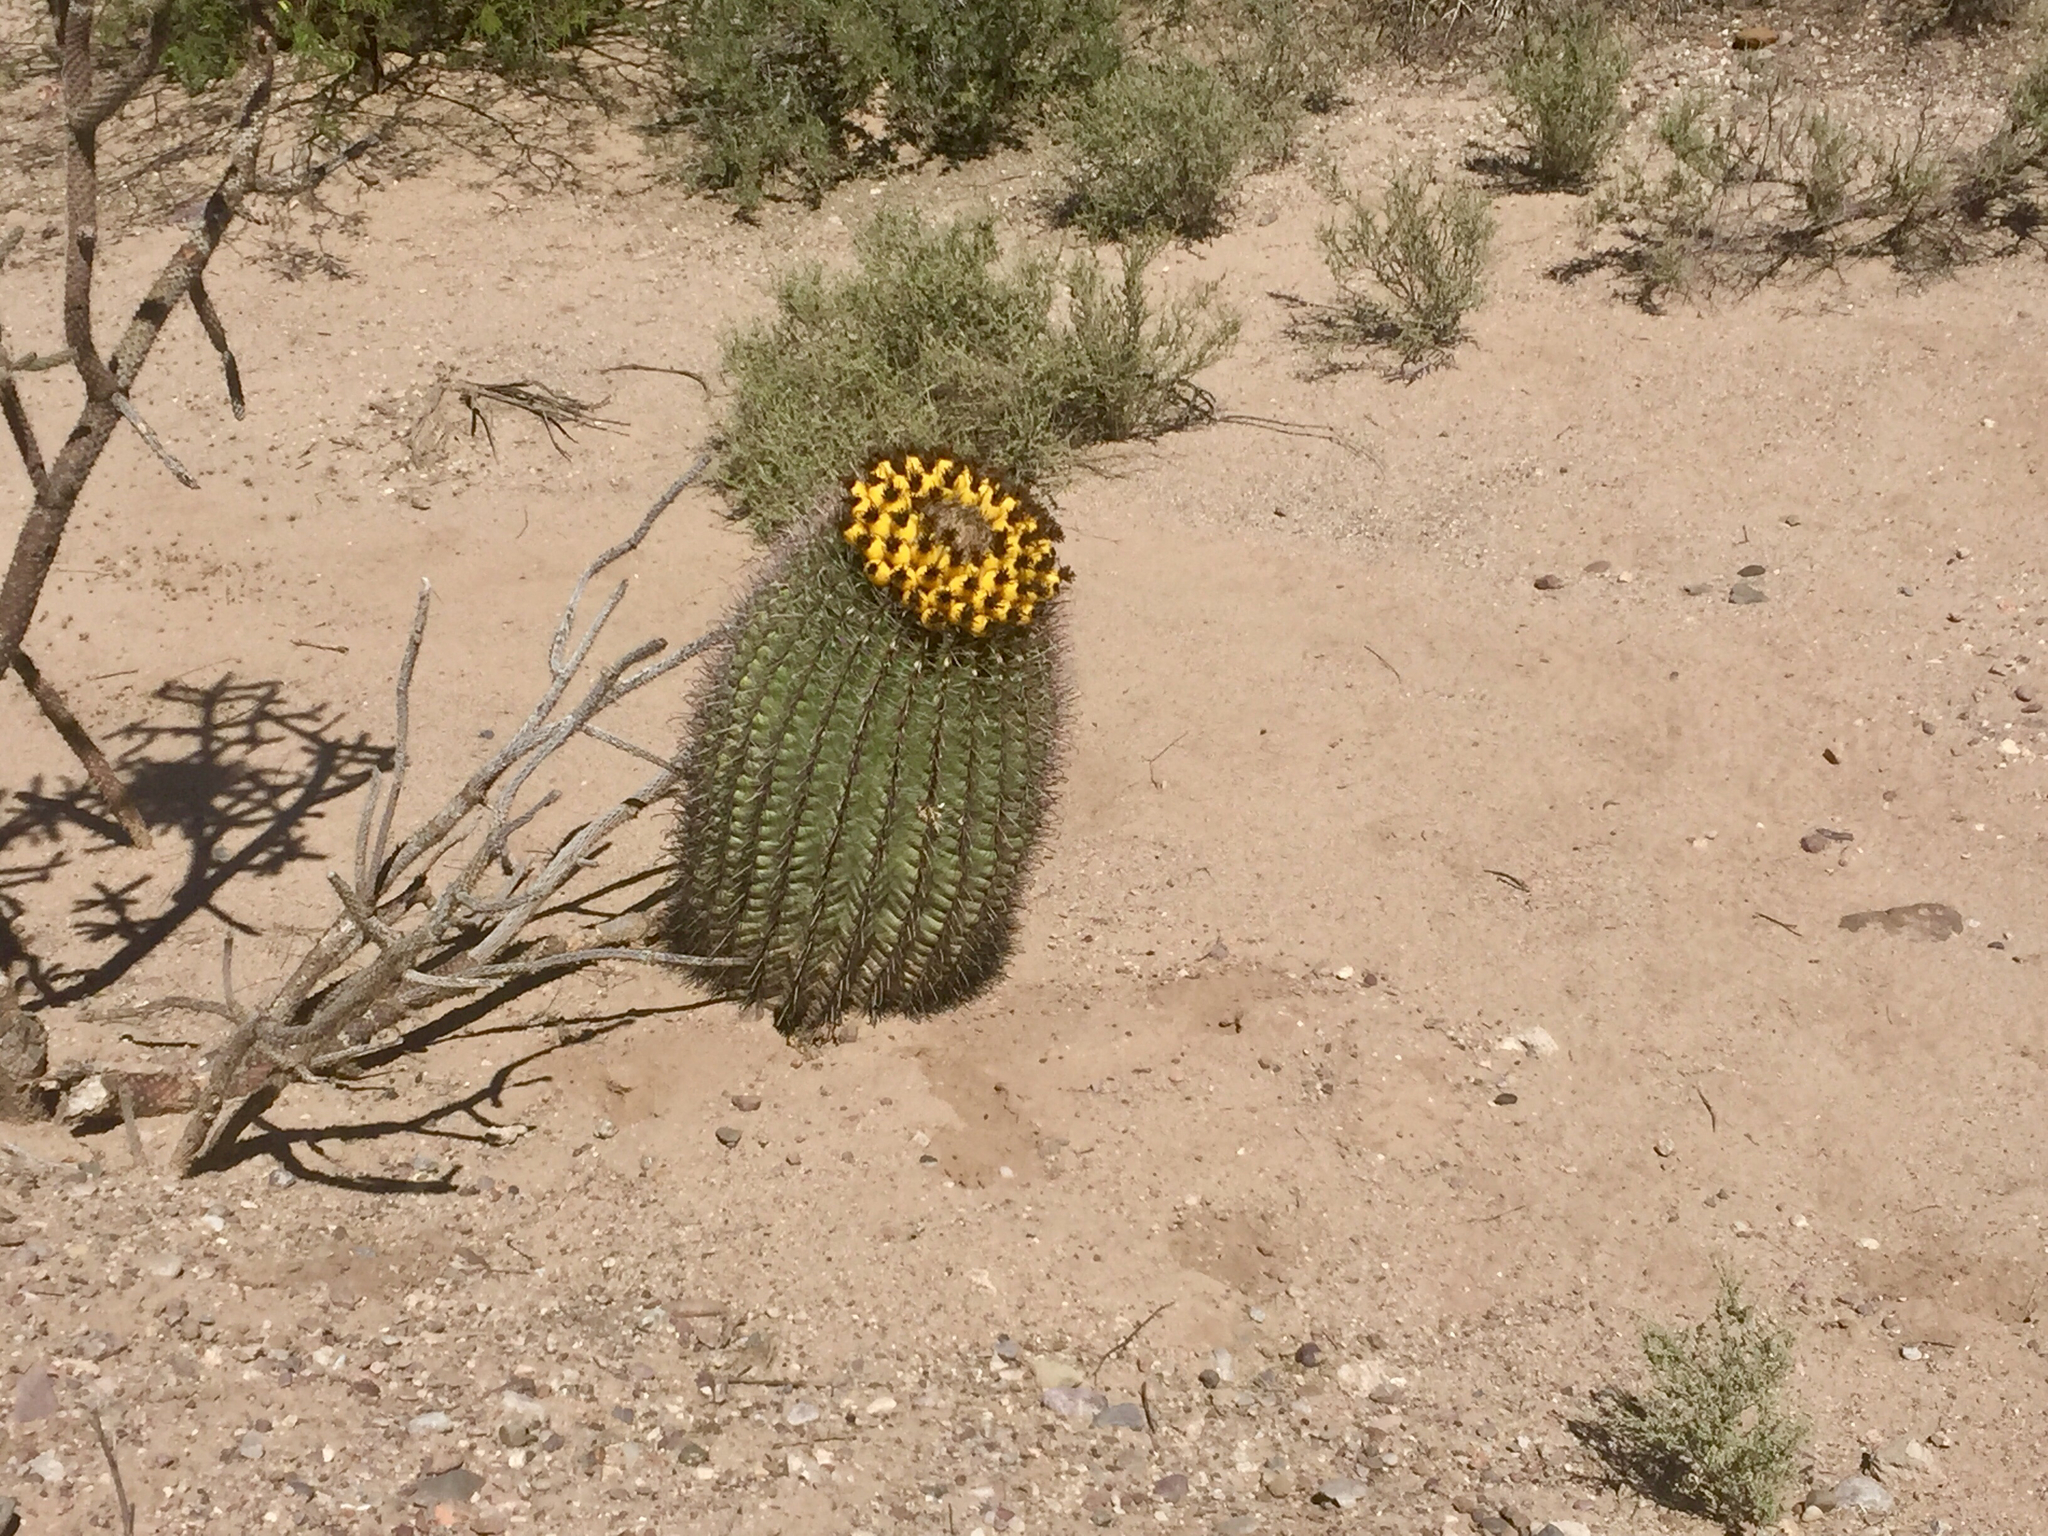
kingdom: Plantae
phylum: Tracheophyta
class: Magnoliopsida
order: Caryophyllales
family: Cactaceae
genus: Ferocactus
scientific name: Ferocactus wislizeni
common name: Candy barrel cactus
